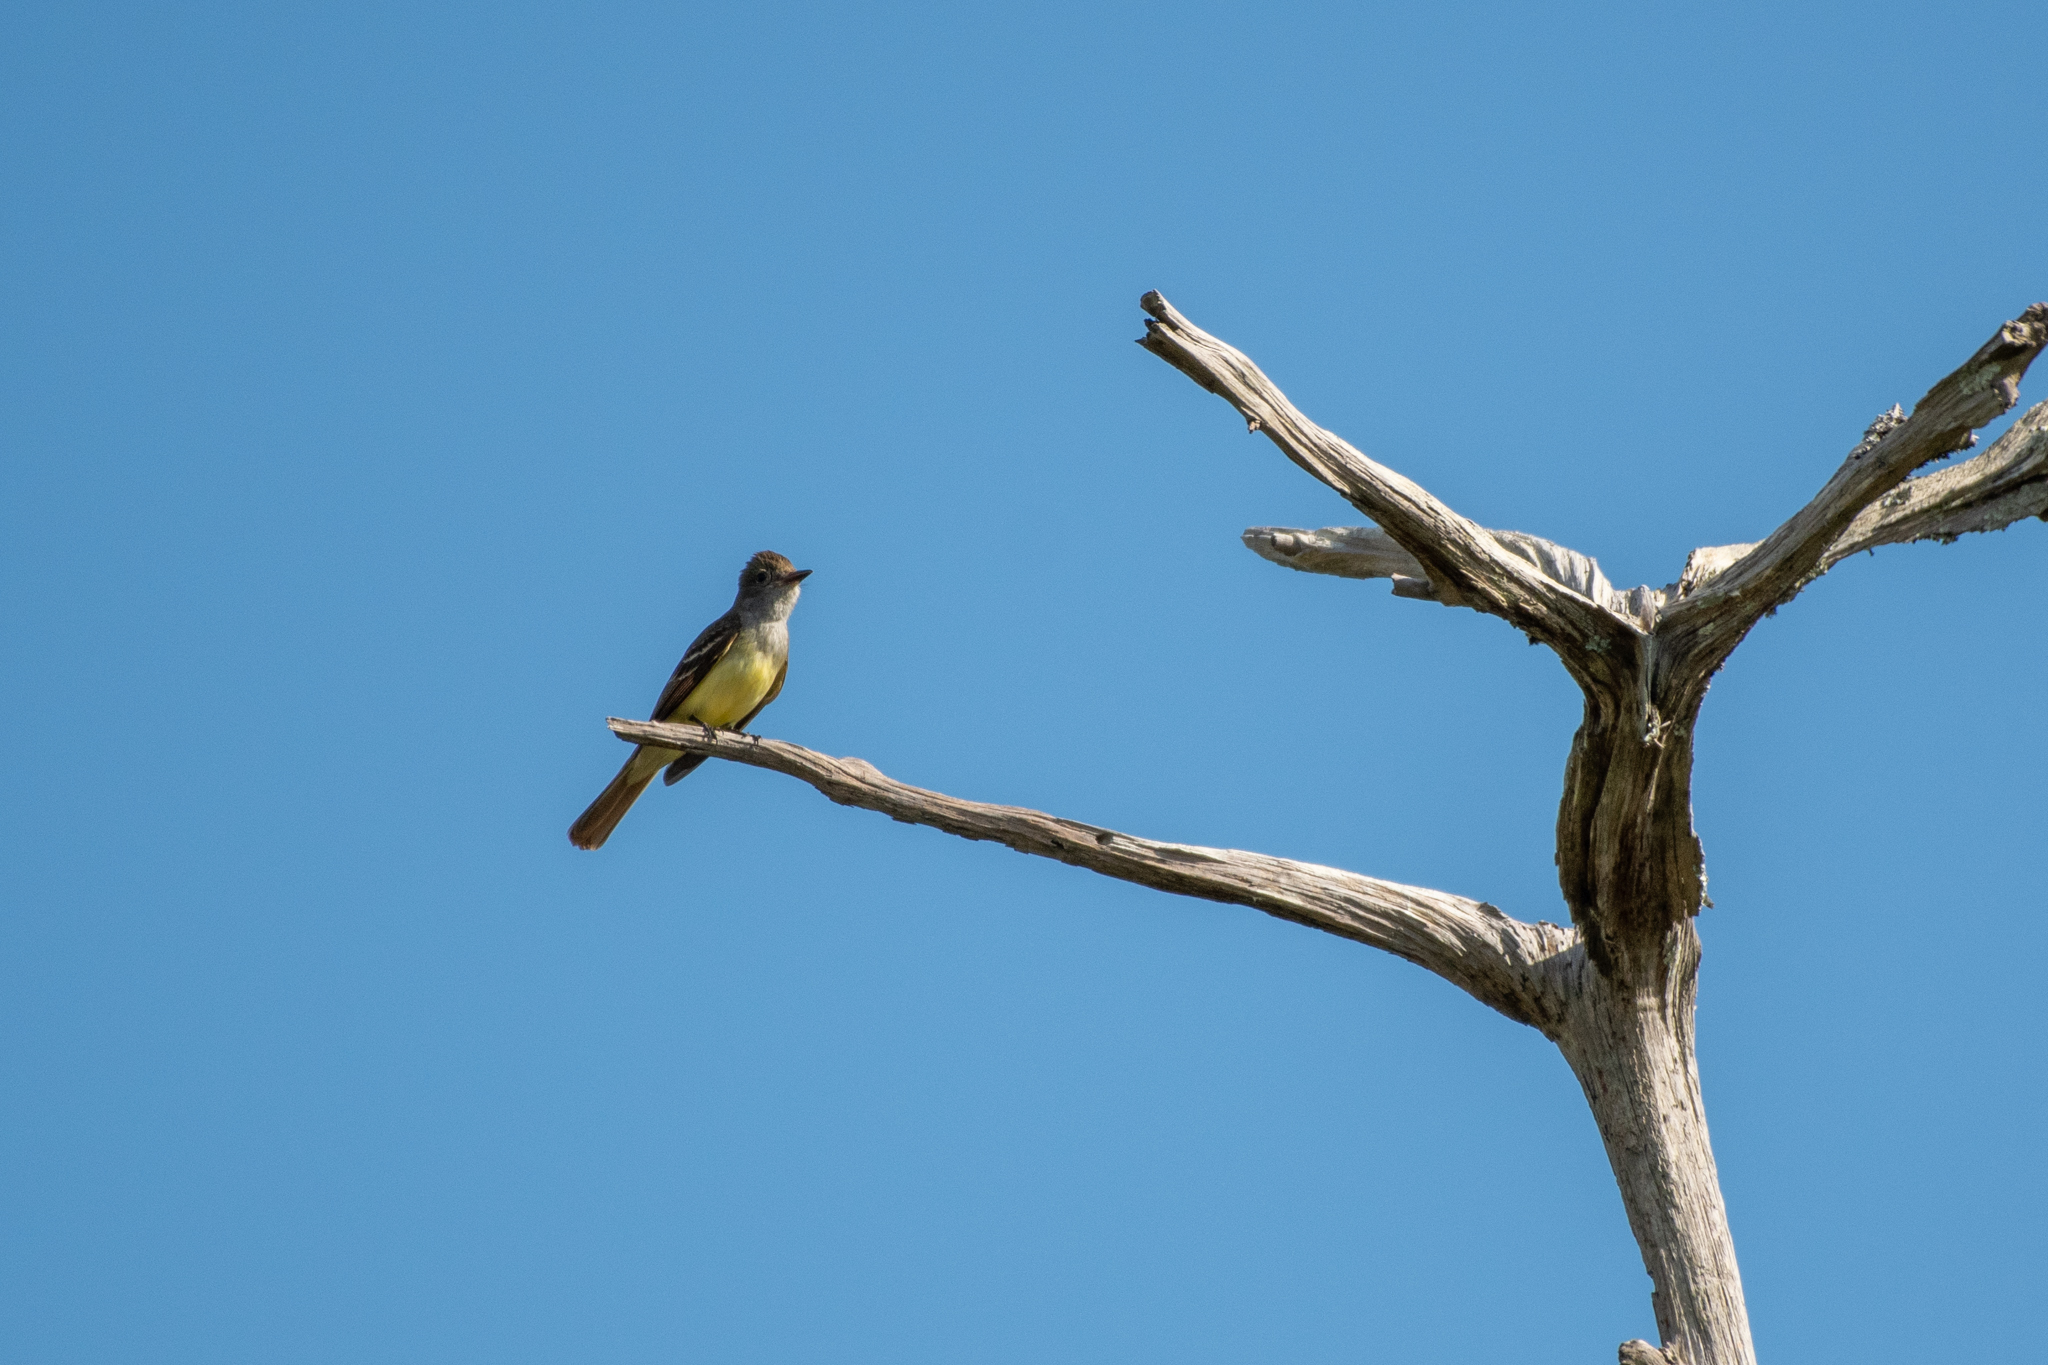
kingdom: Animalia
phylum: Chordata
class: Aves
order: Passeriformes
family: Tyrannidae
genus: Myiarchus
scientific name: Myiarchus crinitus
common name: Great crested flycatcher
